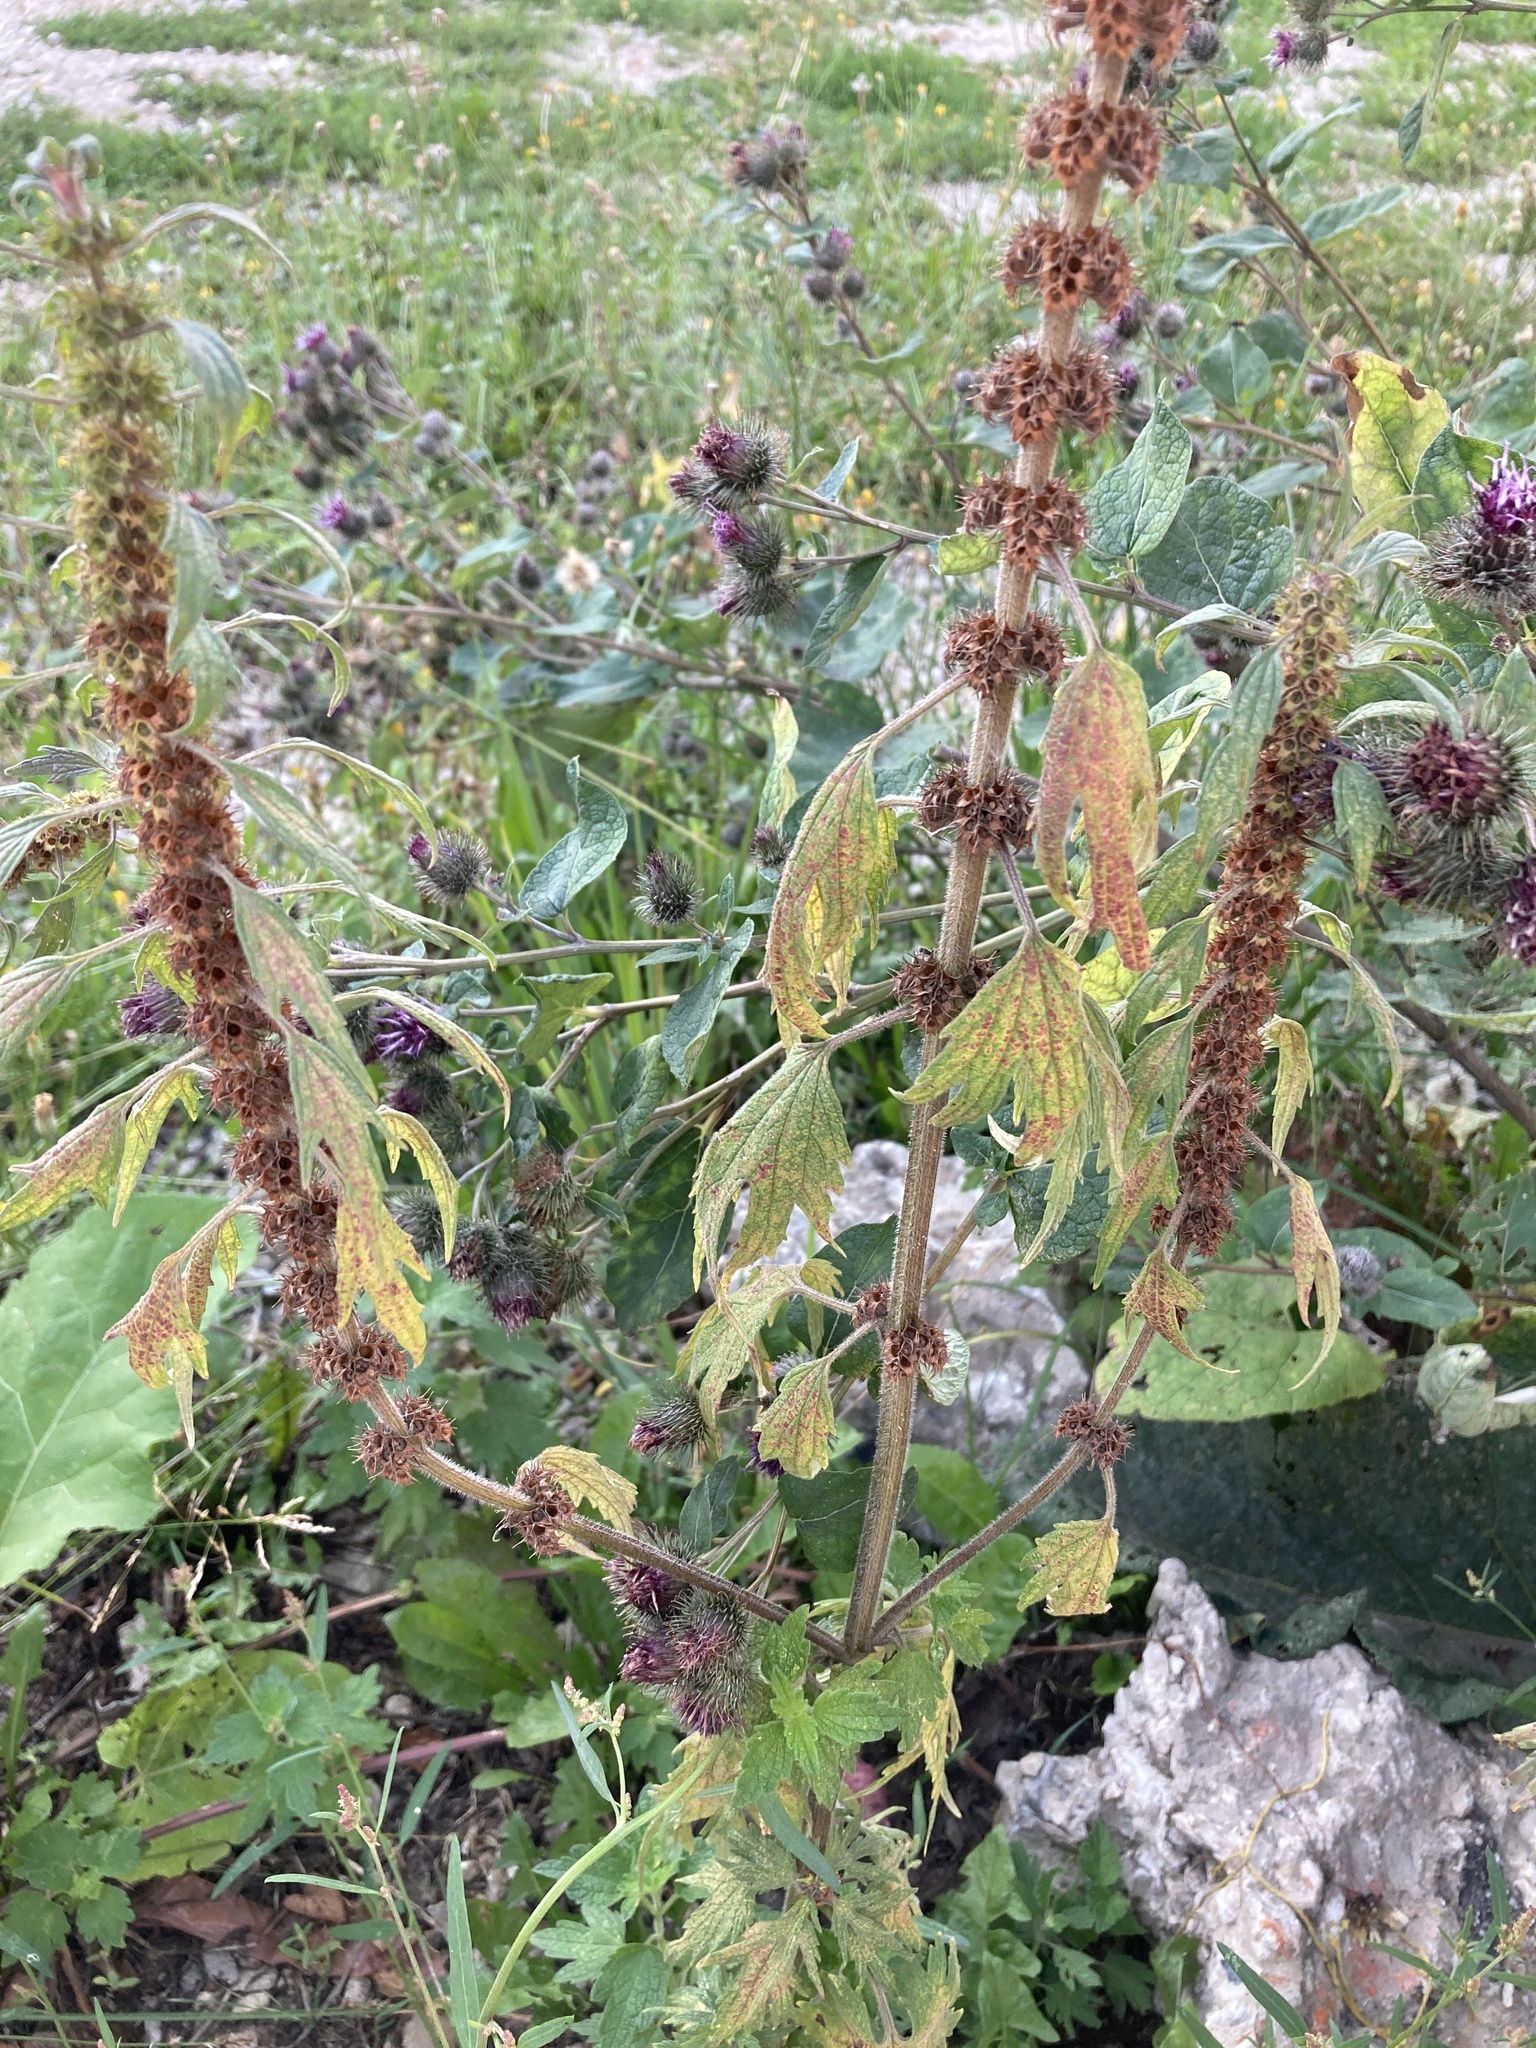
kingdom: Plantae
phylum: Tracheophyta
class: Magnoliopsida
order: Lamiales
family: Lamiaceae
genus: Leonurus
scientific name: Leonurus quinquelobatus
